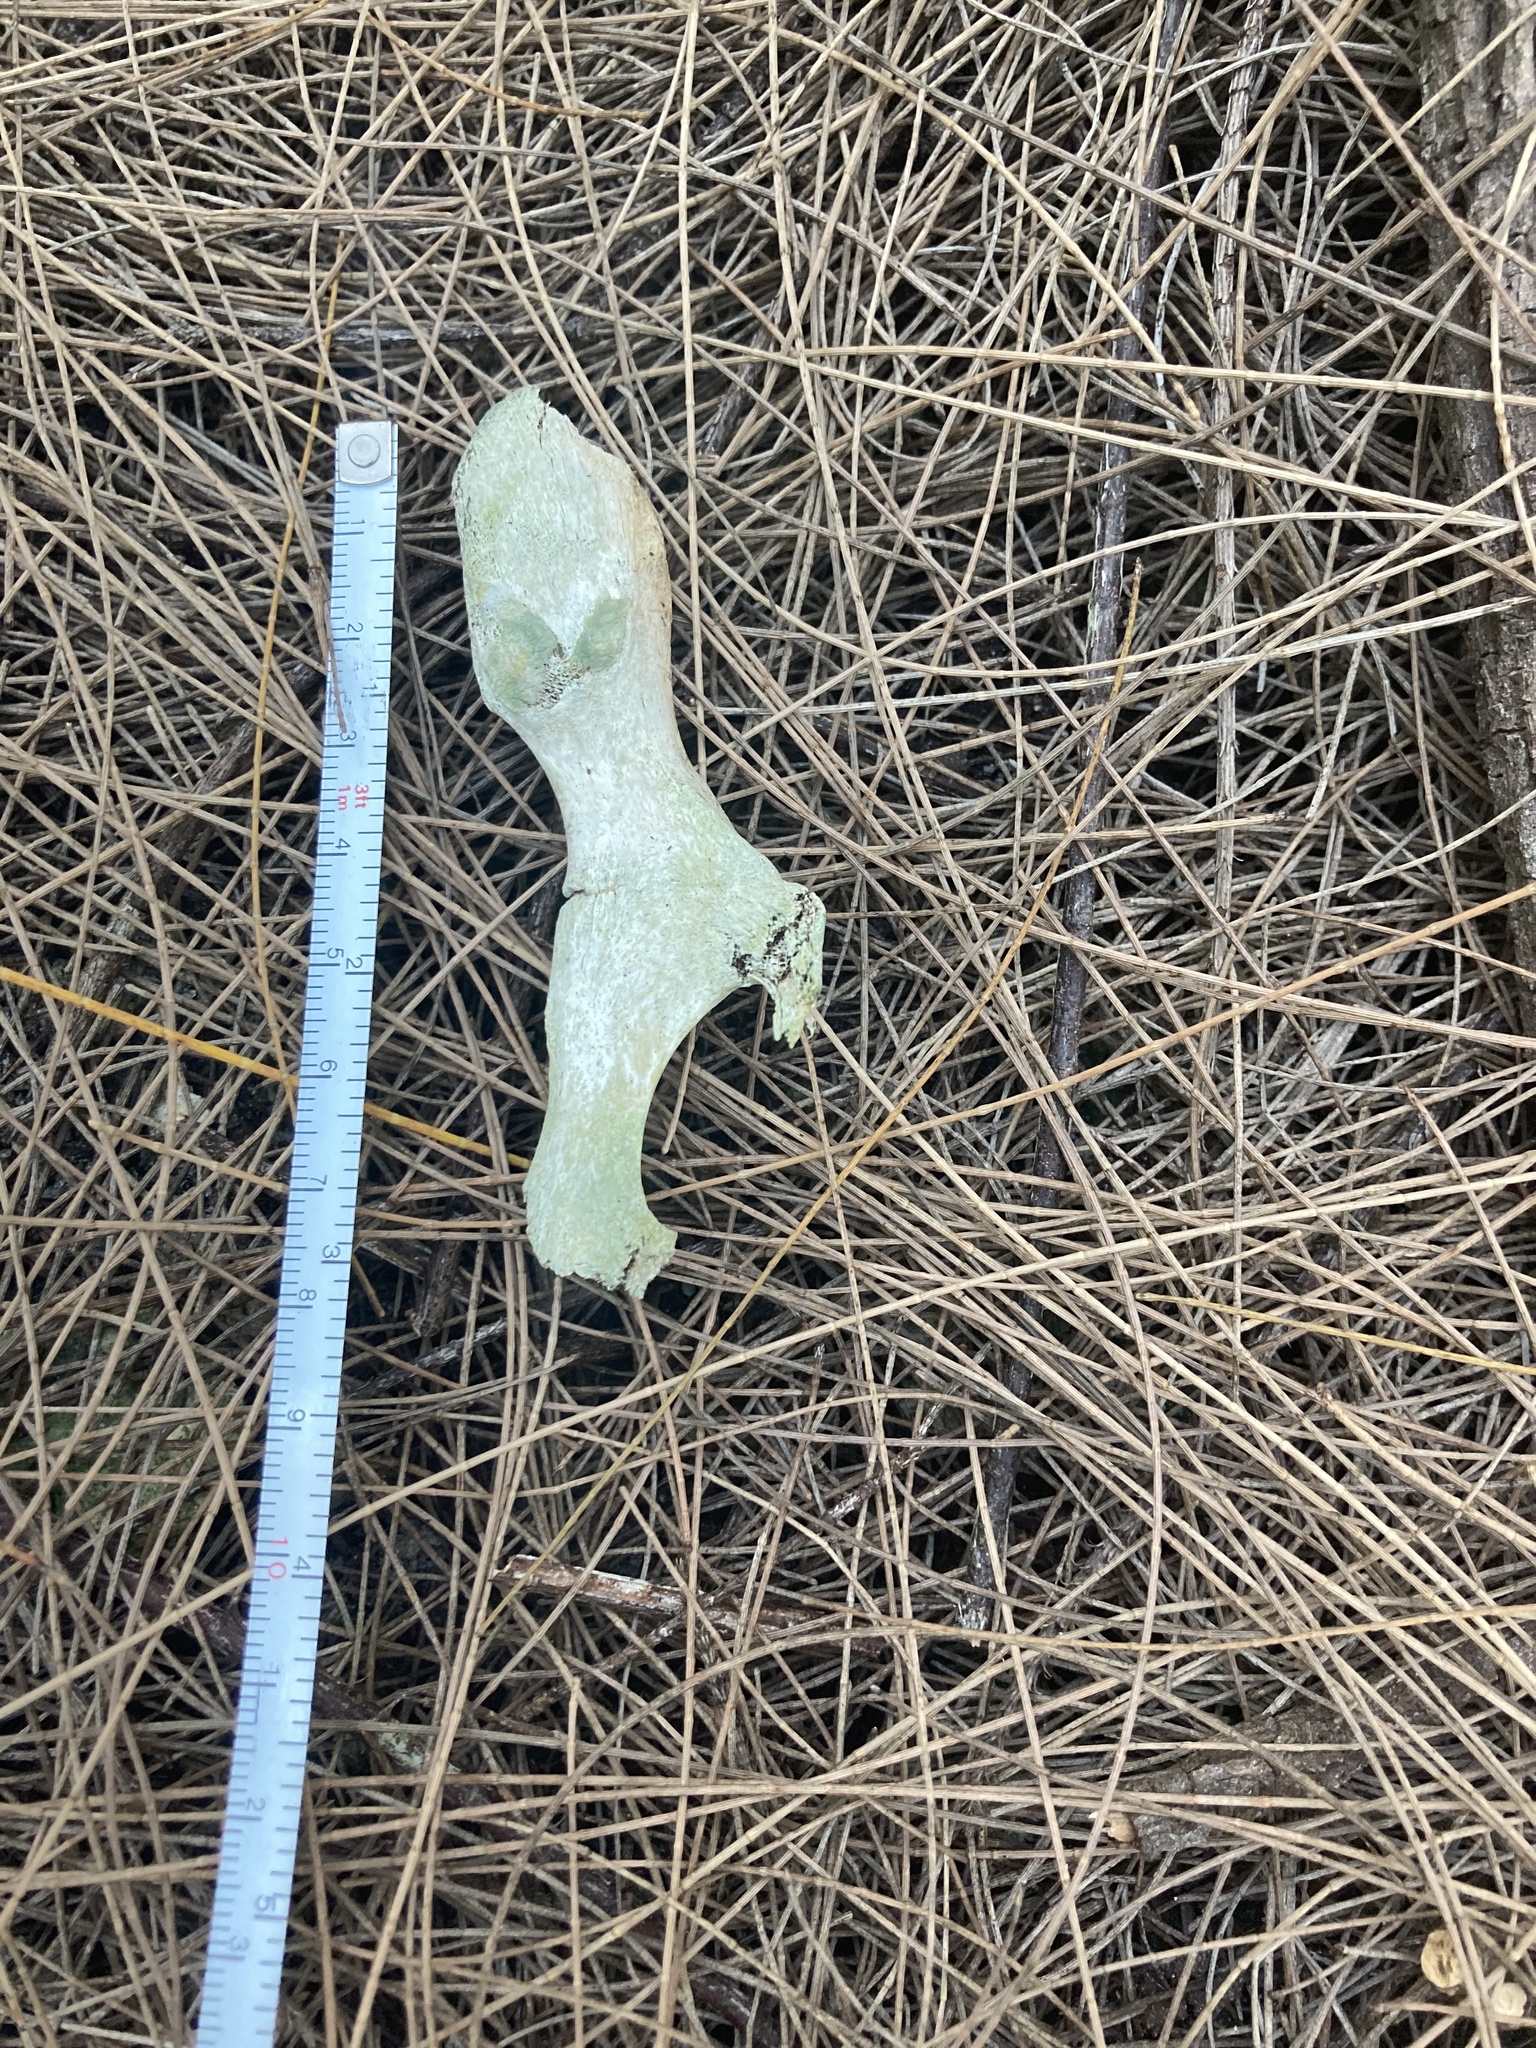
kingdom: Animalia
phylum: Chordata
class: Mammalia
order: Carnivora
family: Procyonidae
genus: Procyon
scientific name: Procyon lotor
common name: Raccoon
